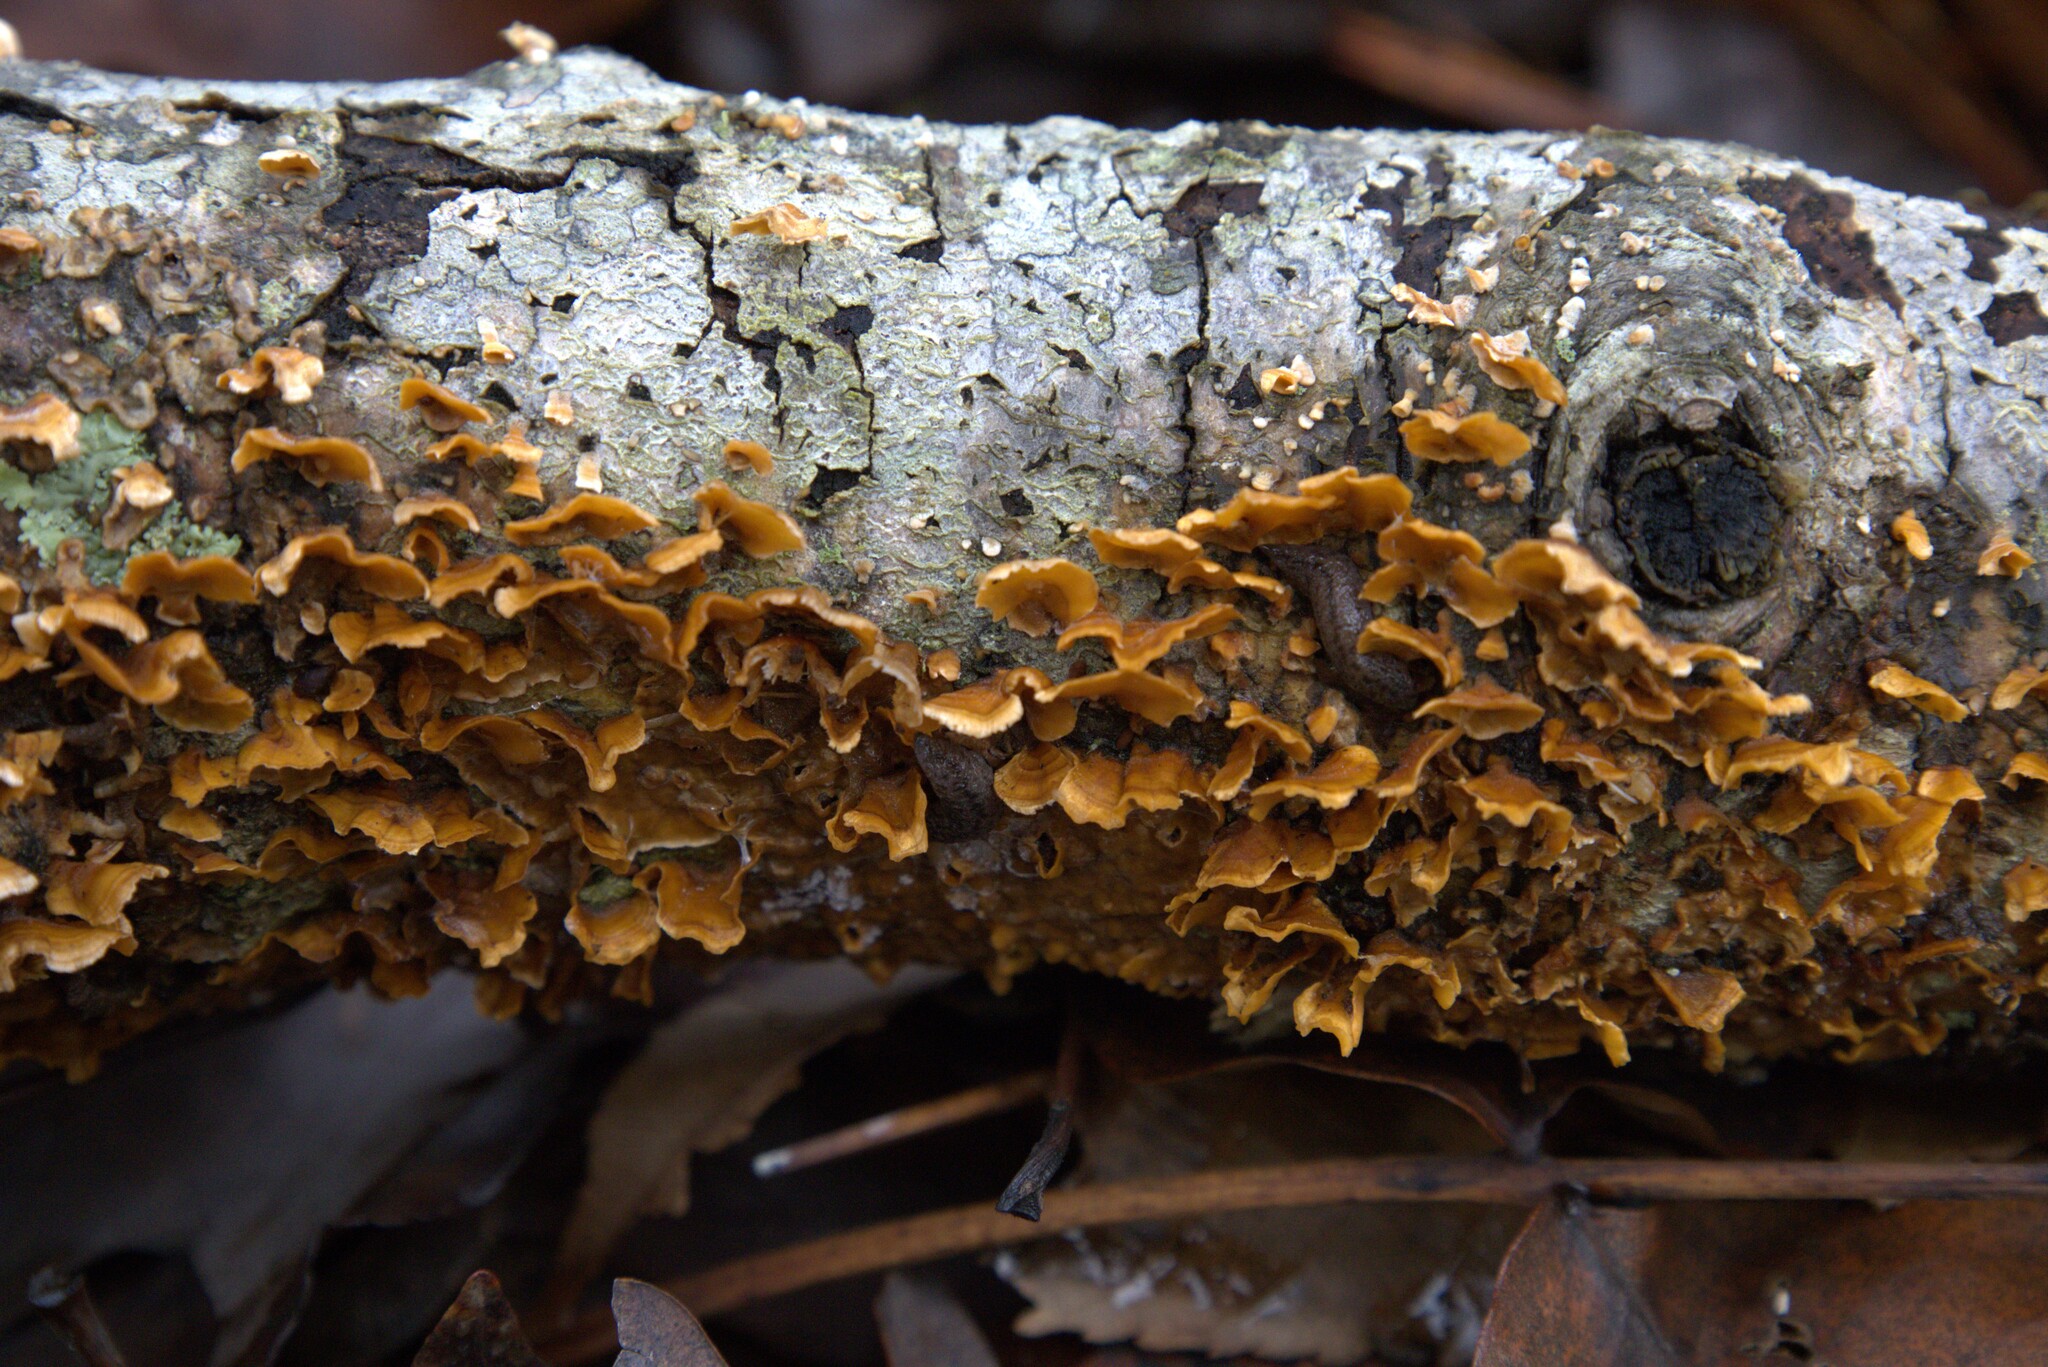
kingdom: Fungi
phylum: Basidiomycota
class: Agaricomycetes
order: Russulales
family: Stereaceae
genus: Stereum
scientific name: Stereum complicatum
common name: Crowded parchment
